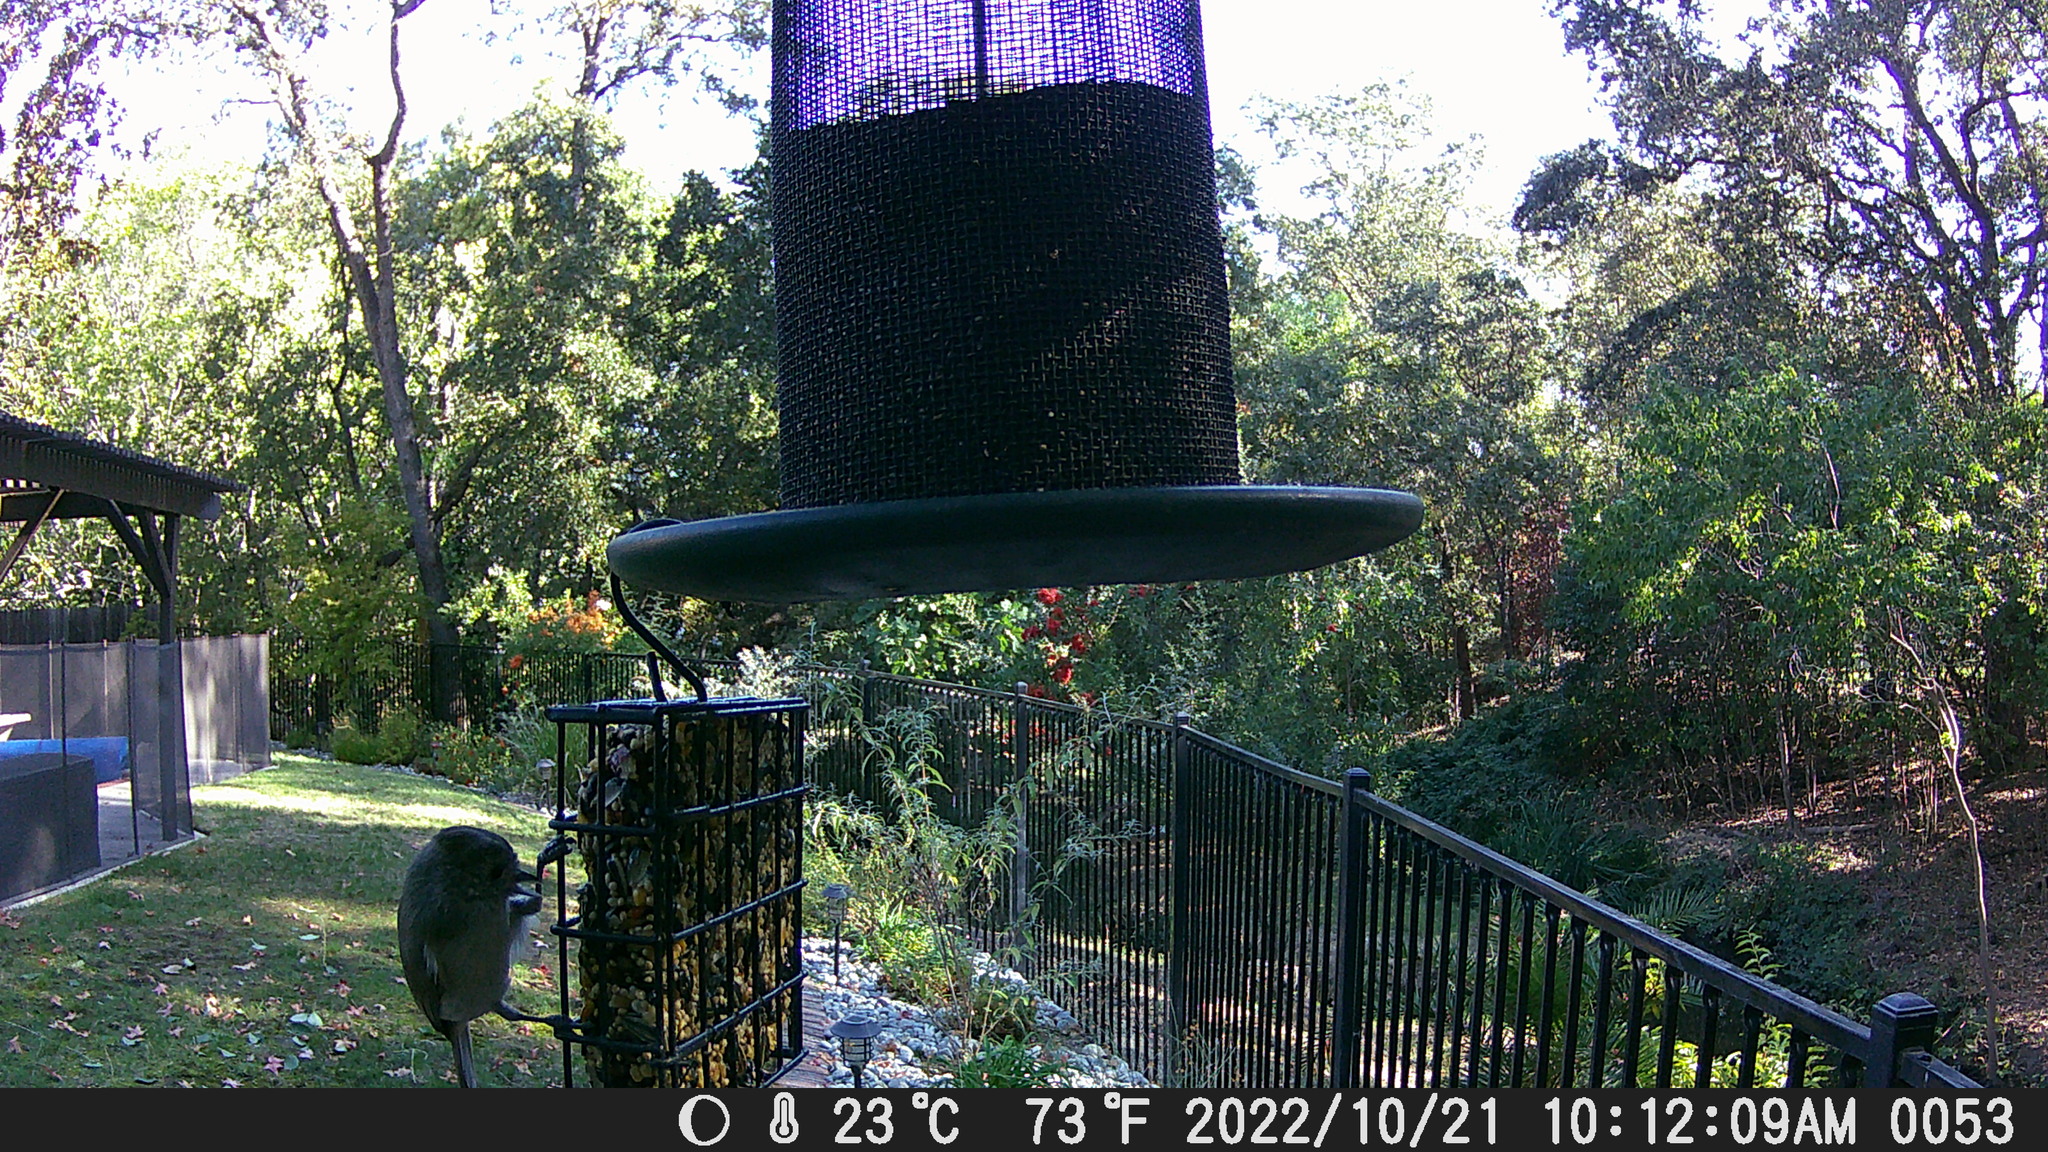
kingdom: Animalia
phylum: Chordata
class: Aves
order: Passeriformes
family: Paridae
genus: Baeolophus
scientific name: Baeolophus inornatus
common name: Oak titmouse
